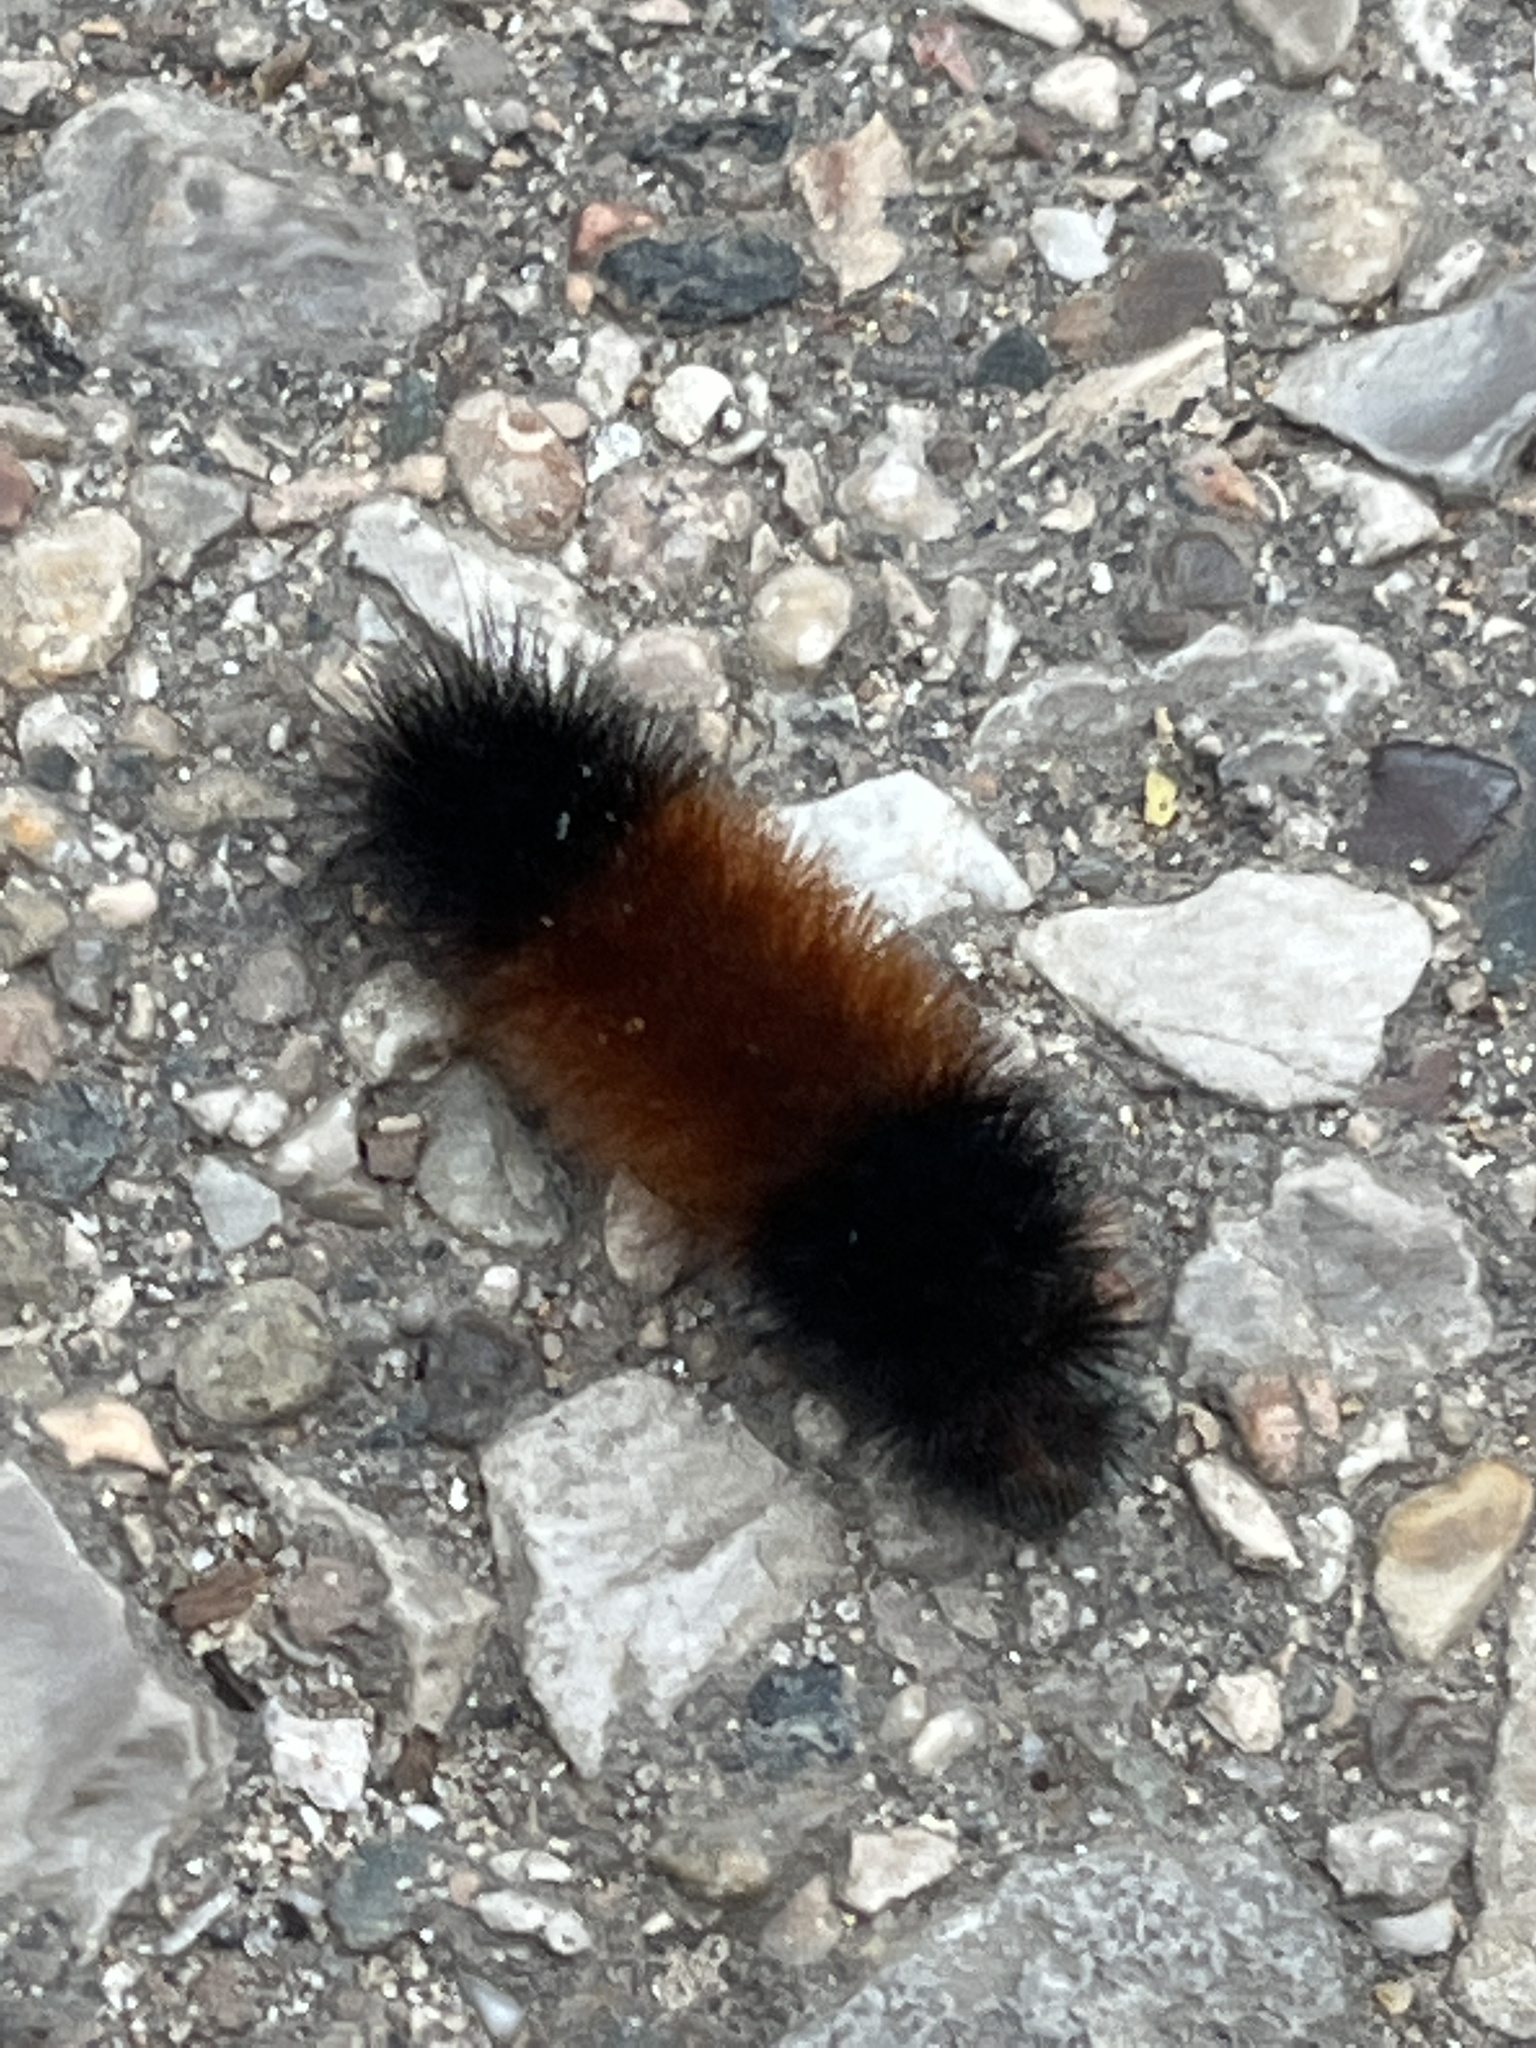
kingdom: Animalia
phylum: Arthropoda
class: Insecta
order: Lepidoptera
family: Erebidae
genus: Pyrrharctia
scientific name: Pyrrharctia isabella
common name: Isabella tiger moth
